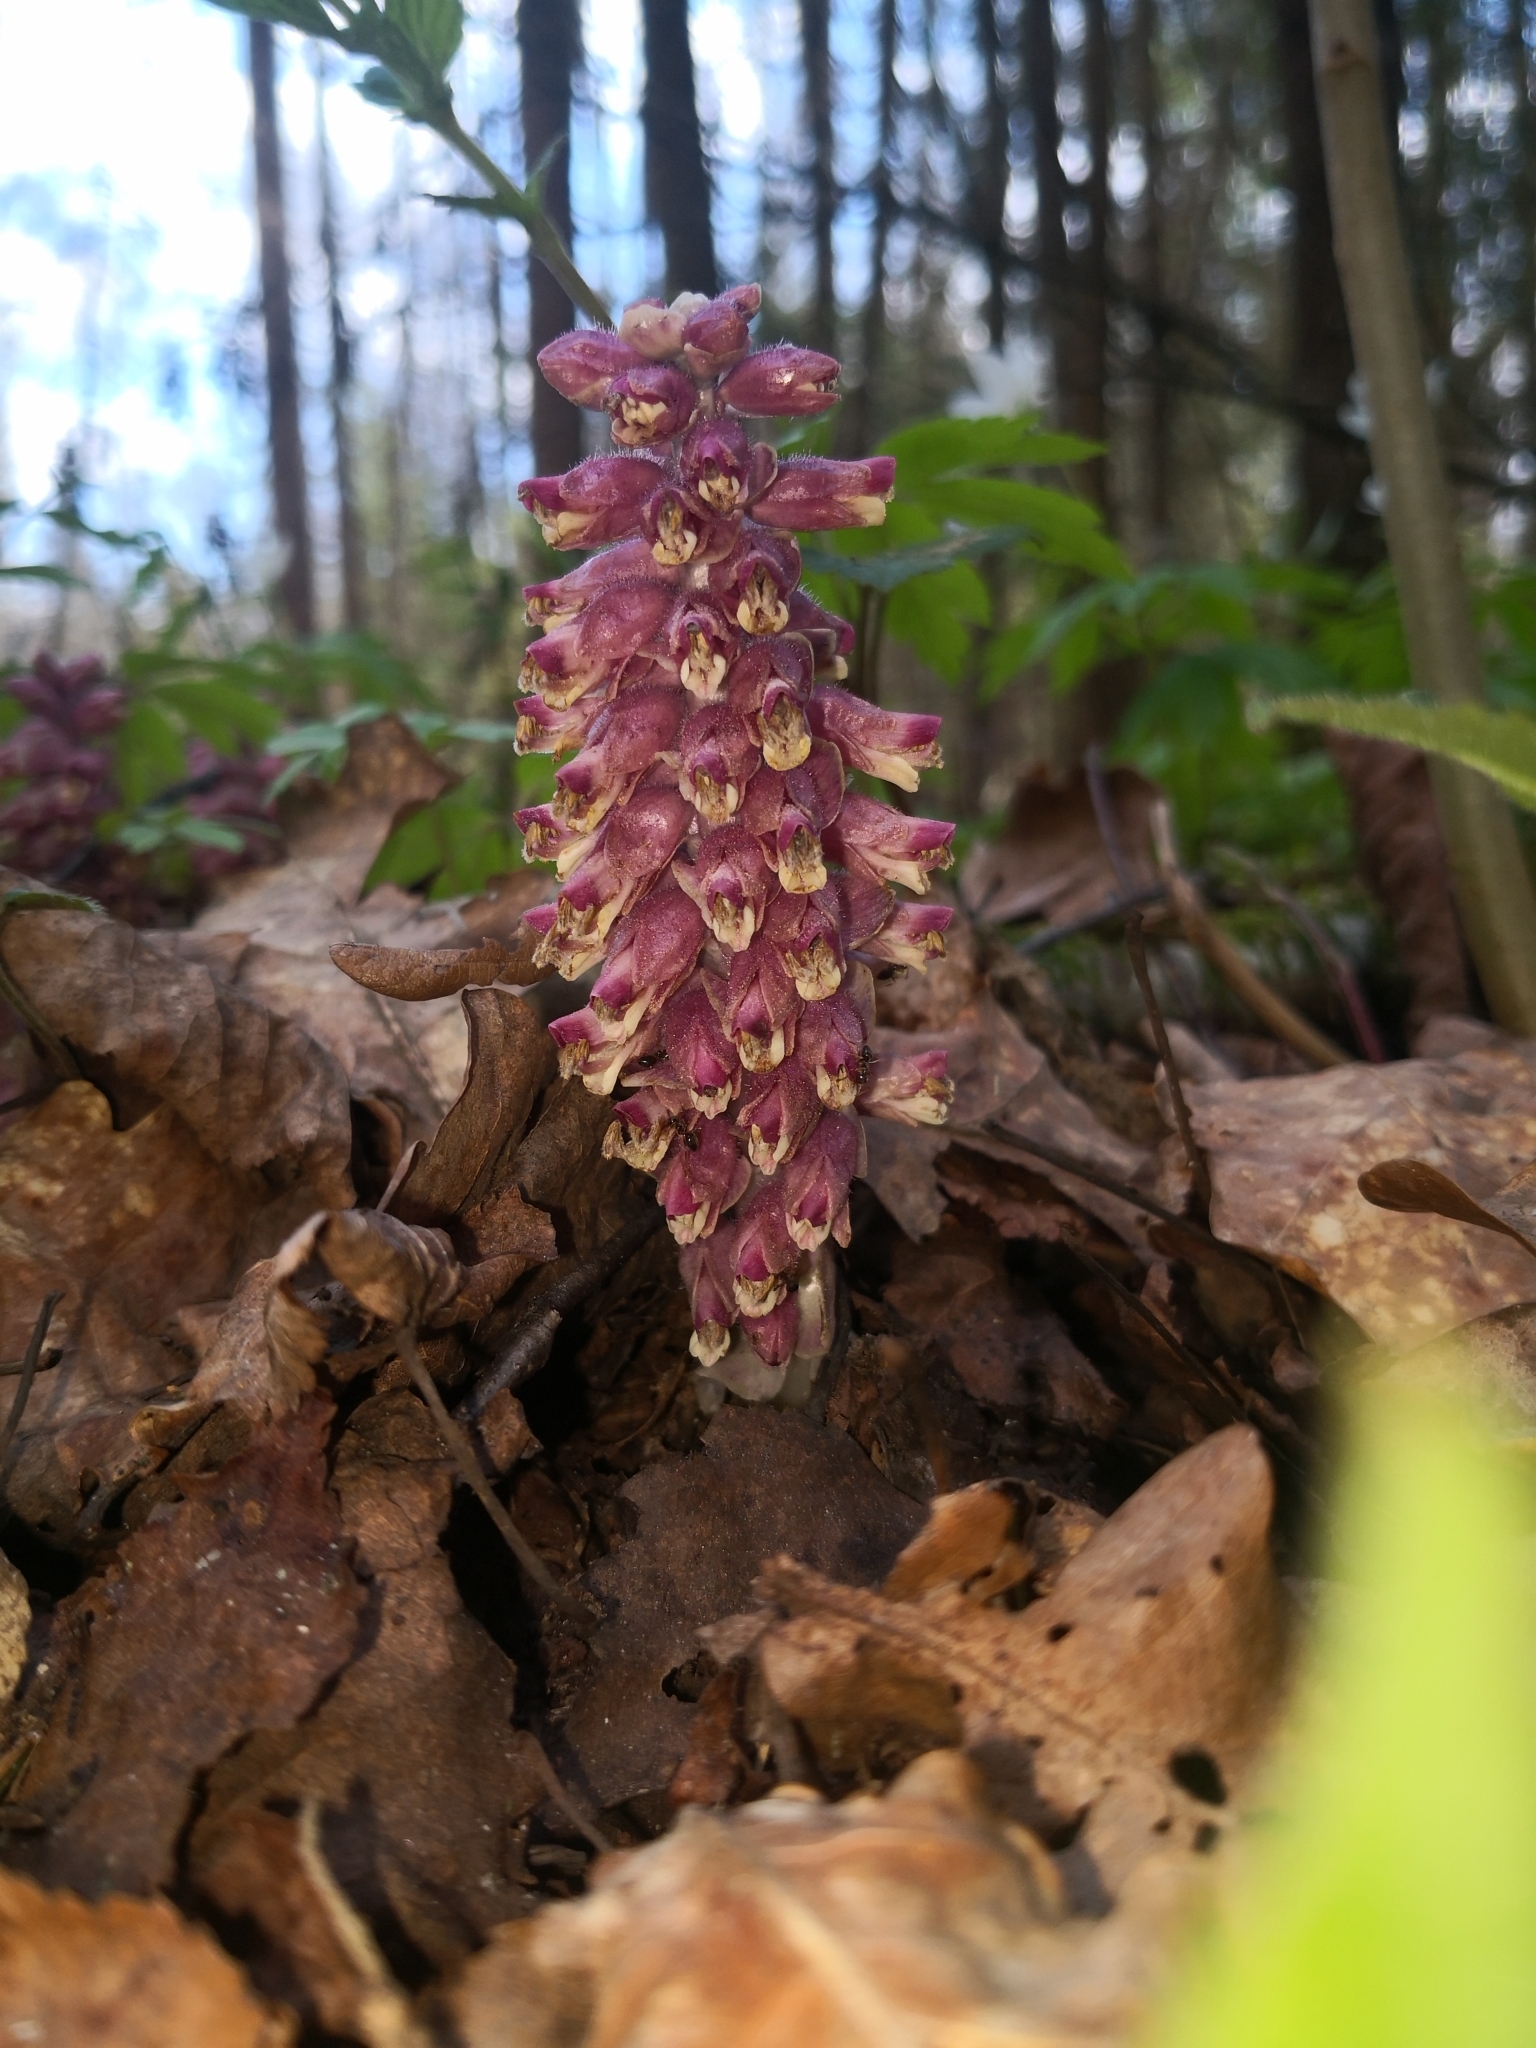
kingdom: Plantae
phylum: Tracheophyta
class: Magnoliopsida
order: Lamiales
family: Orobanchaceae
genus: Lathraea
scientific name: Lathraea squamaria
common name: Toothwort
